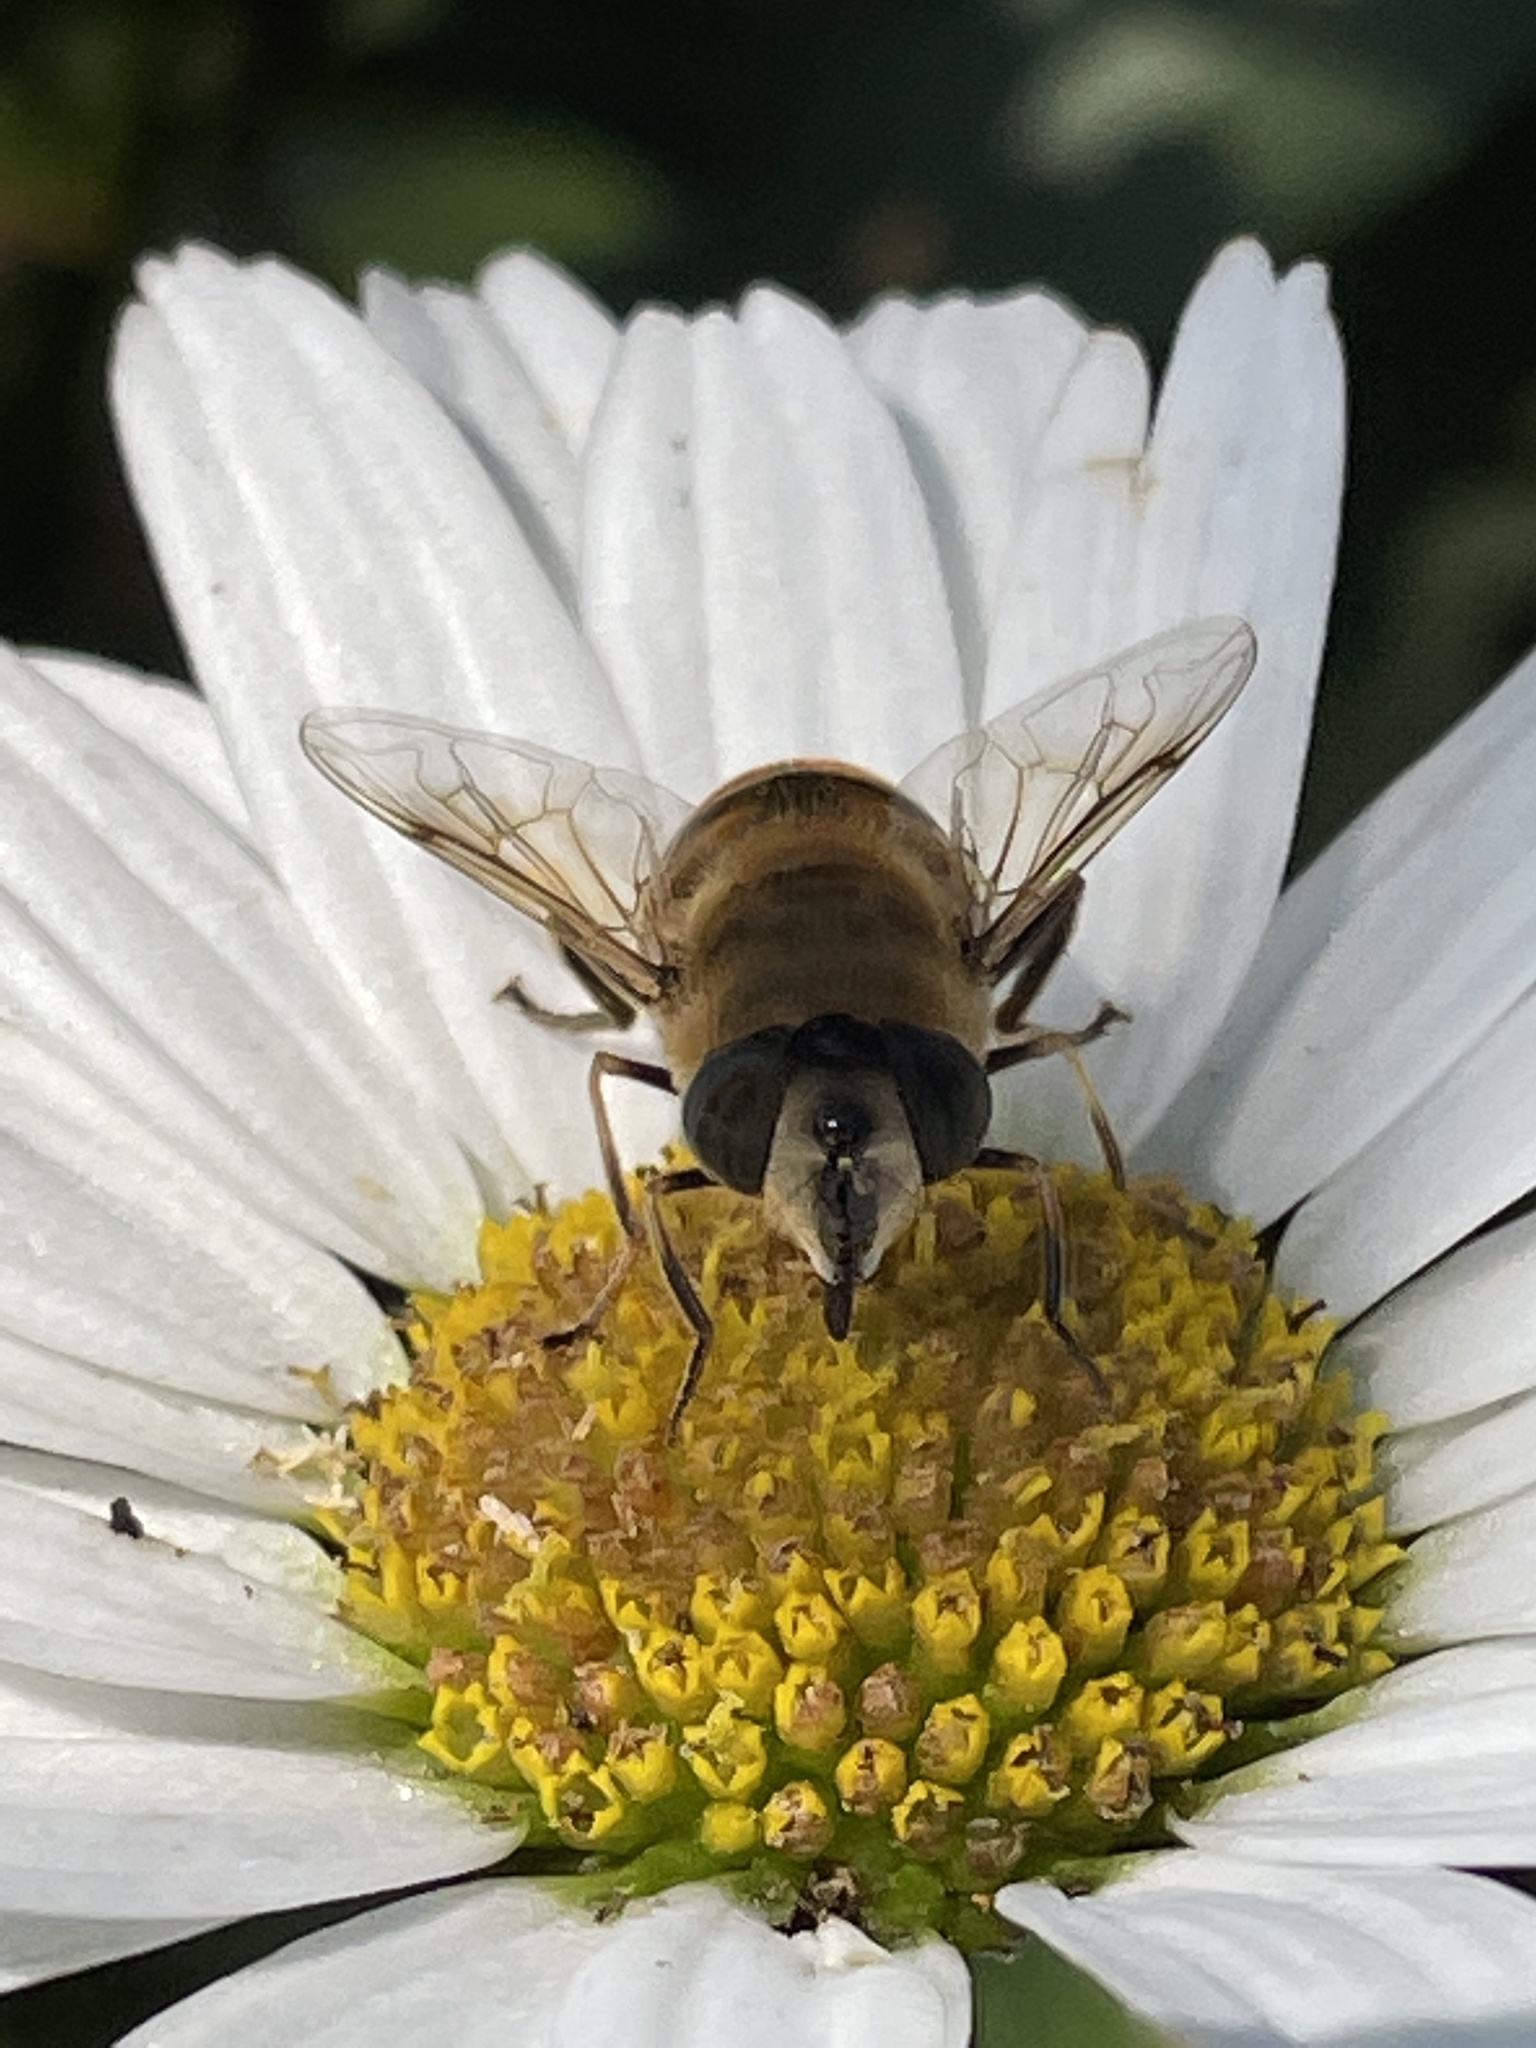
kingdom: Animalia
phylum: Arthropoda
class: Insecta
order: Diptera
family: Syrphidae
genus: Eristalis
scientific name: Eristalis tenax
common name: Drone fly
